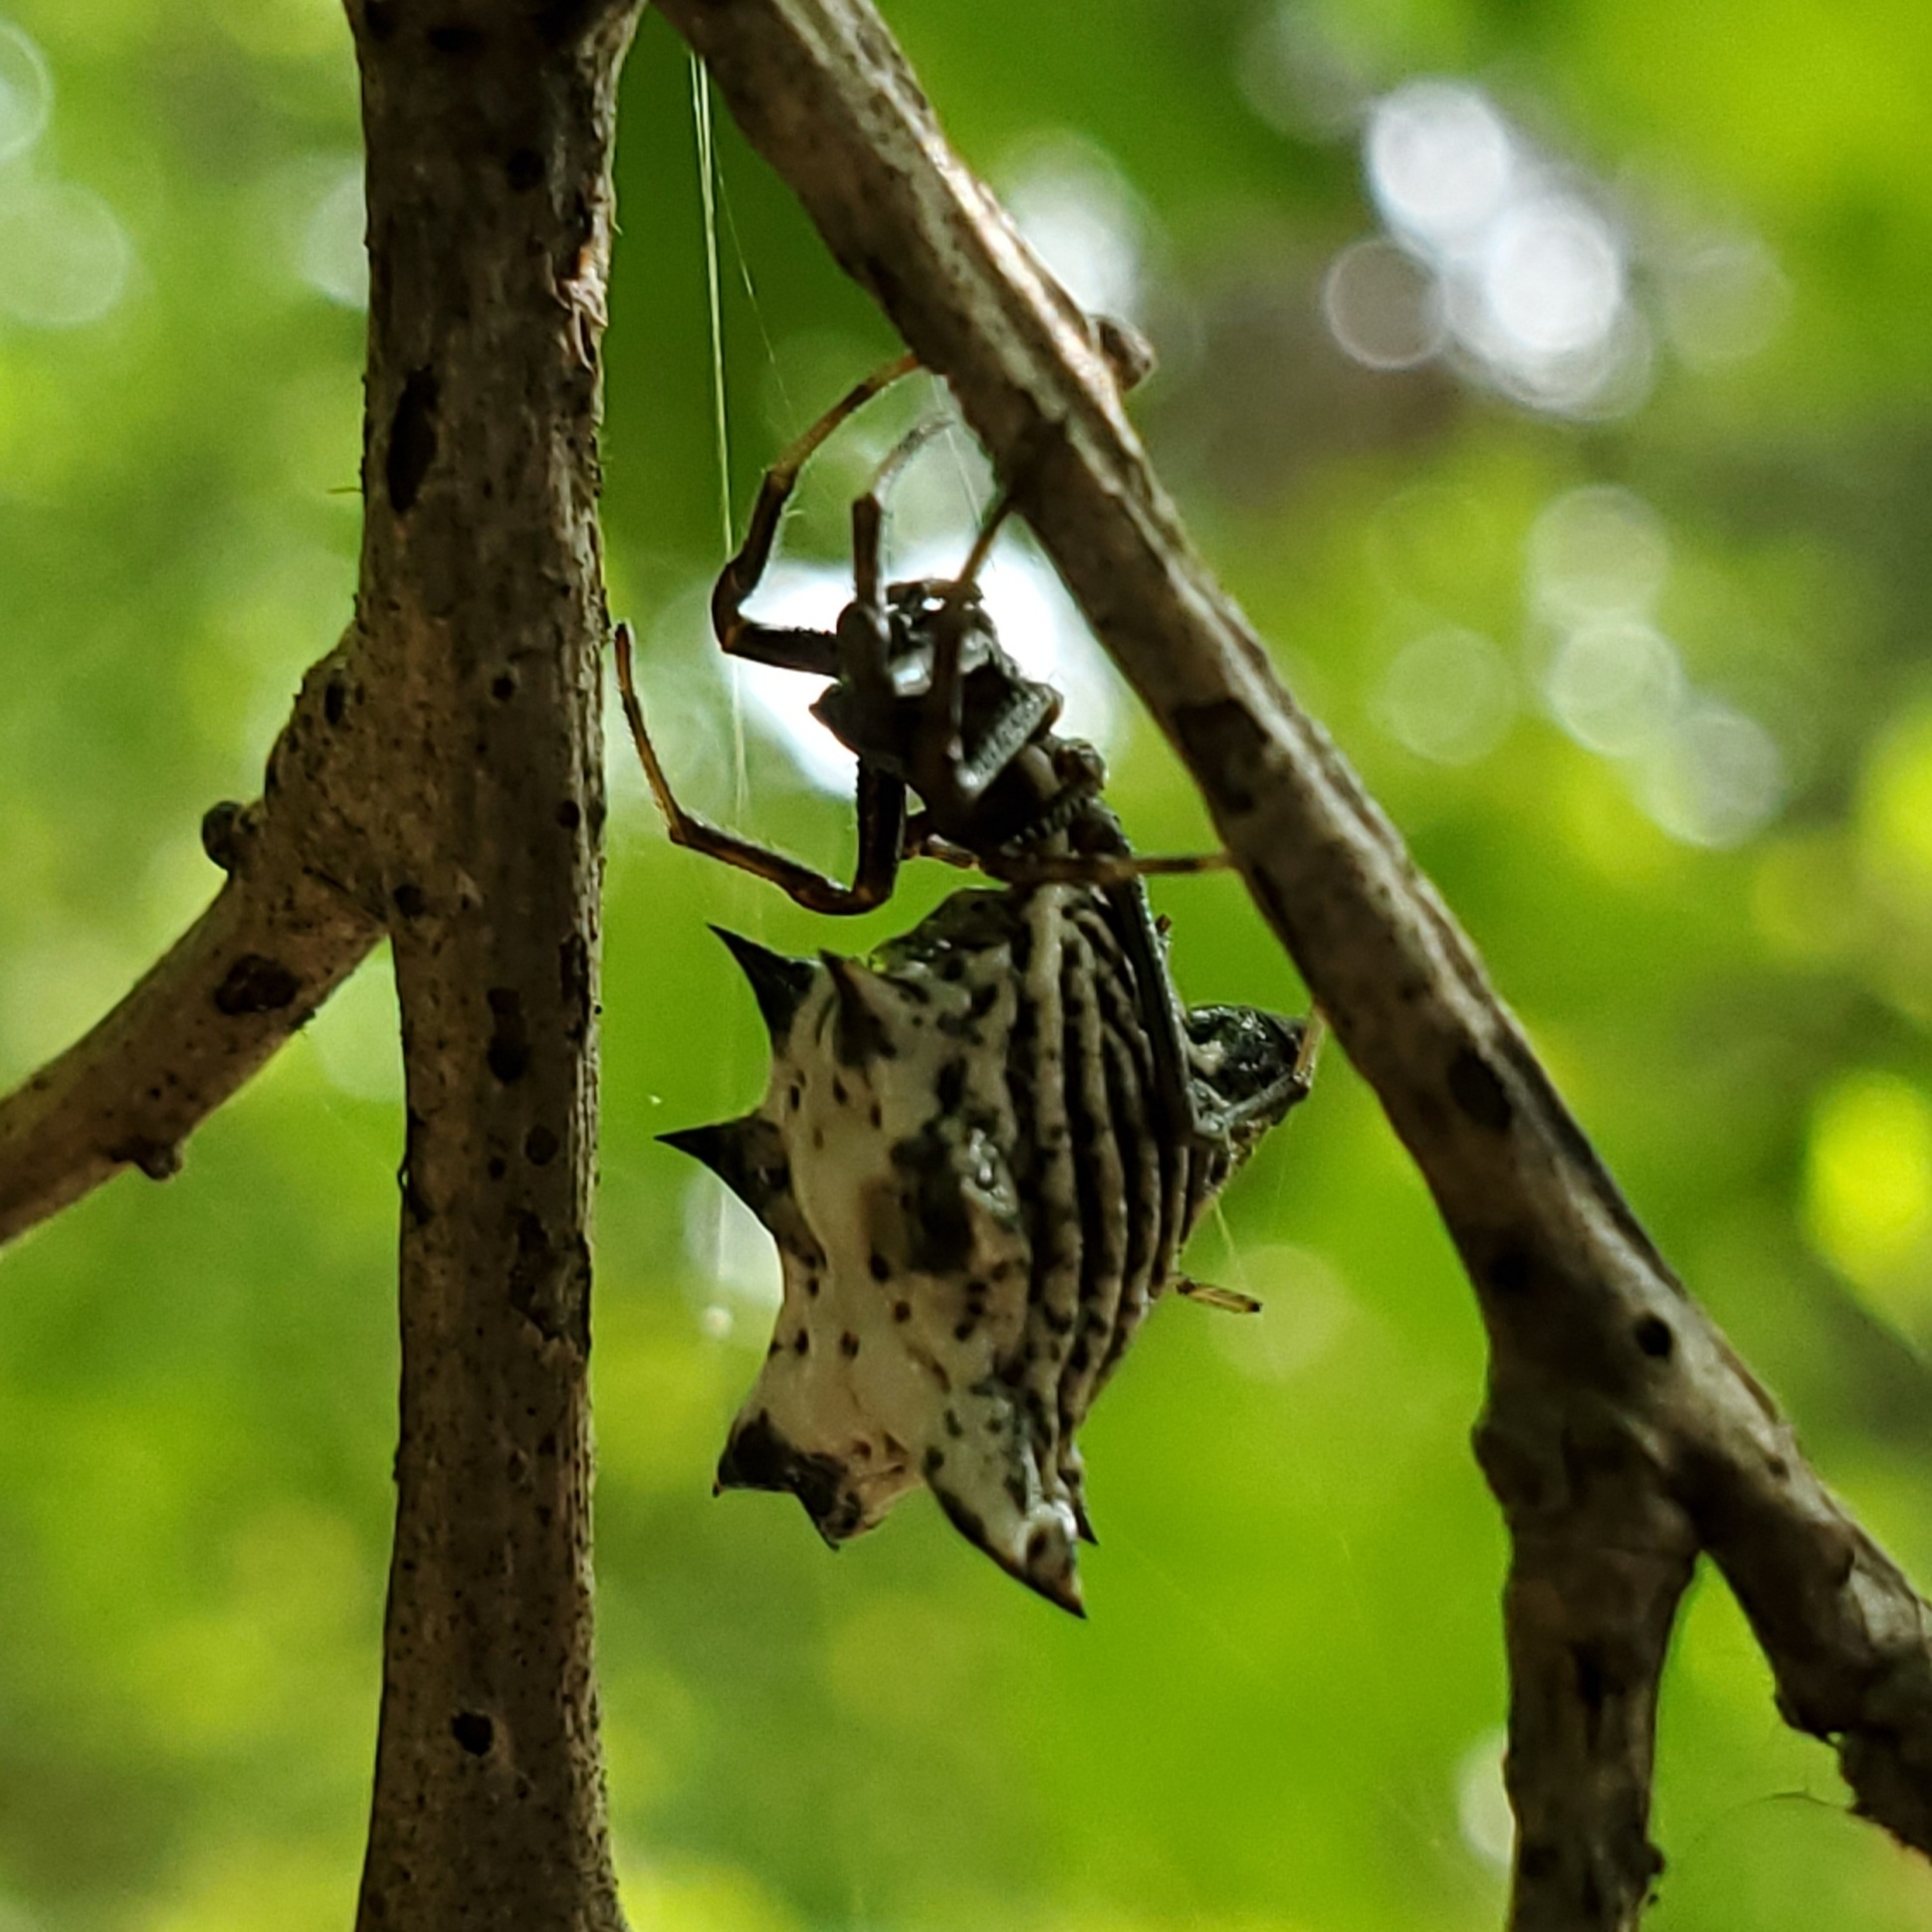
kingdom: Animalia
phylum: Arthropoda
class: Arachnida
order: Araneae
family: Araneidae
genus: Micrathena
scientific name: Micrathena gracilis
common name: Orb weavers
